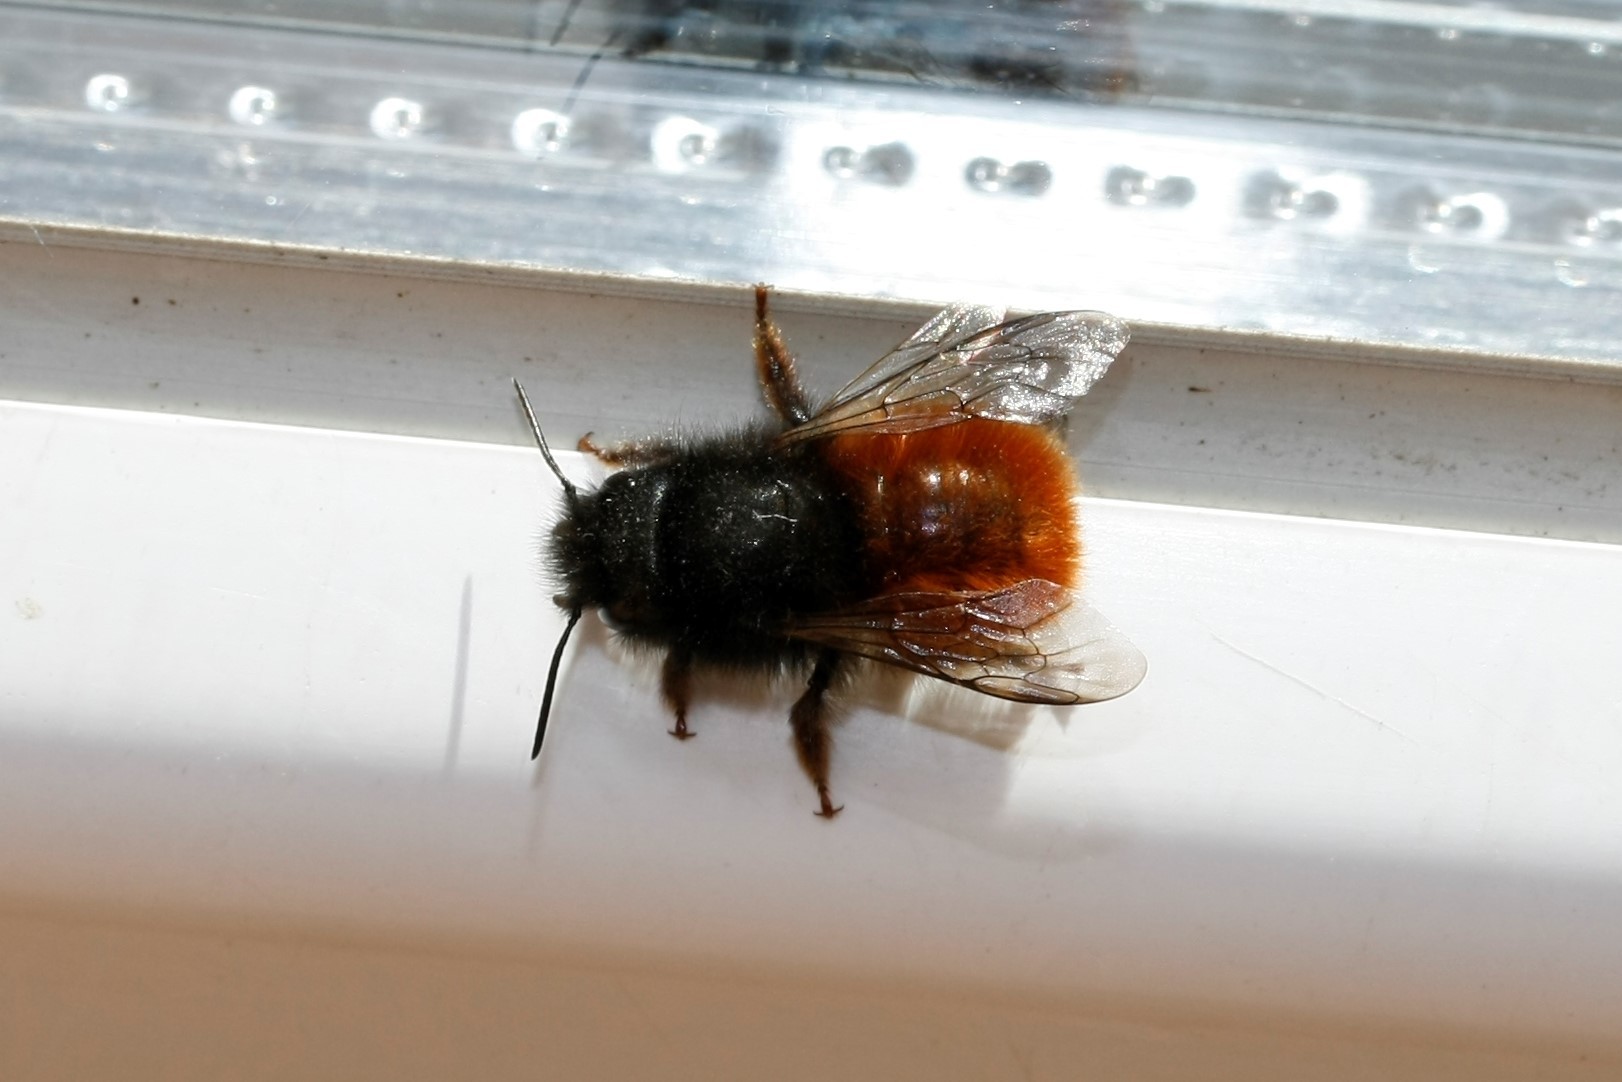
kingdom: Animalia
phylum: Arthropoda
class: Insecta
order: Hymenoptera
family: Megachilidae
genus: Osmia
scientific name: Osmia cornuta
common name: Mason bee
